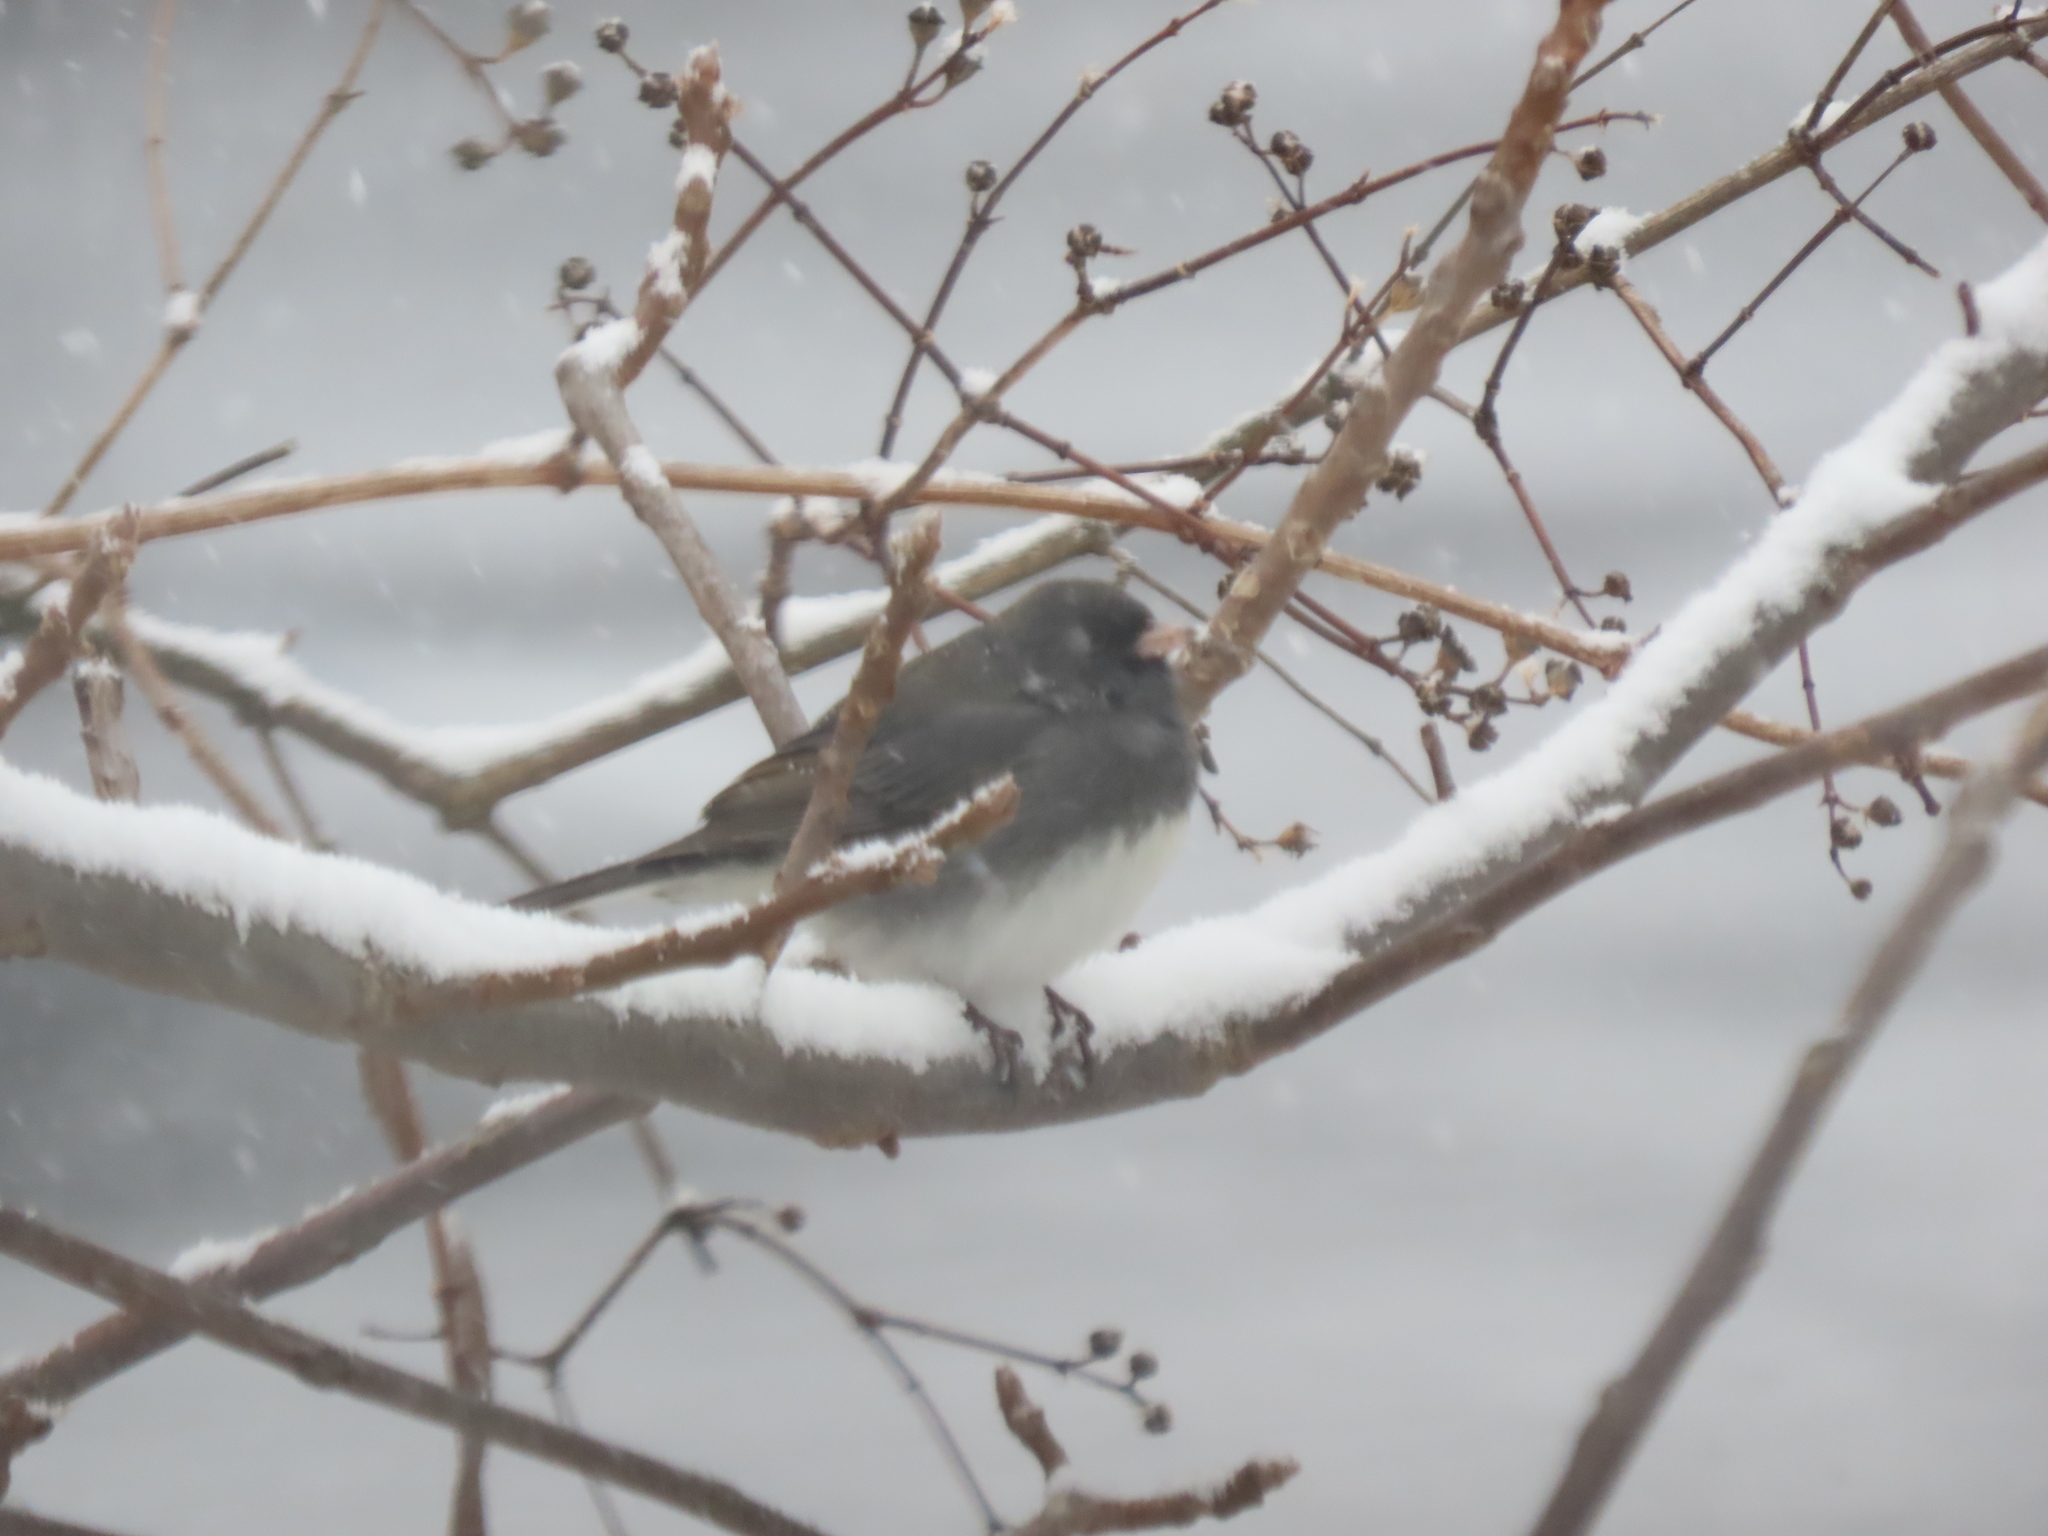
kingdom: Animalia
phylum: Chordata
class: Aves
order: Passeriformes
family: Passerellidae
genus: Junco
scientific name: Junco hyemalis
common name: Dark-eyed junco
